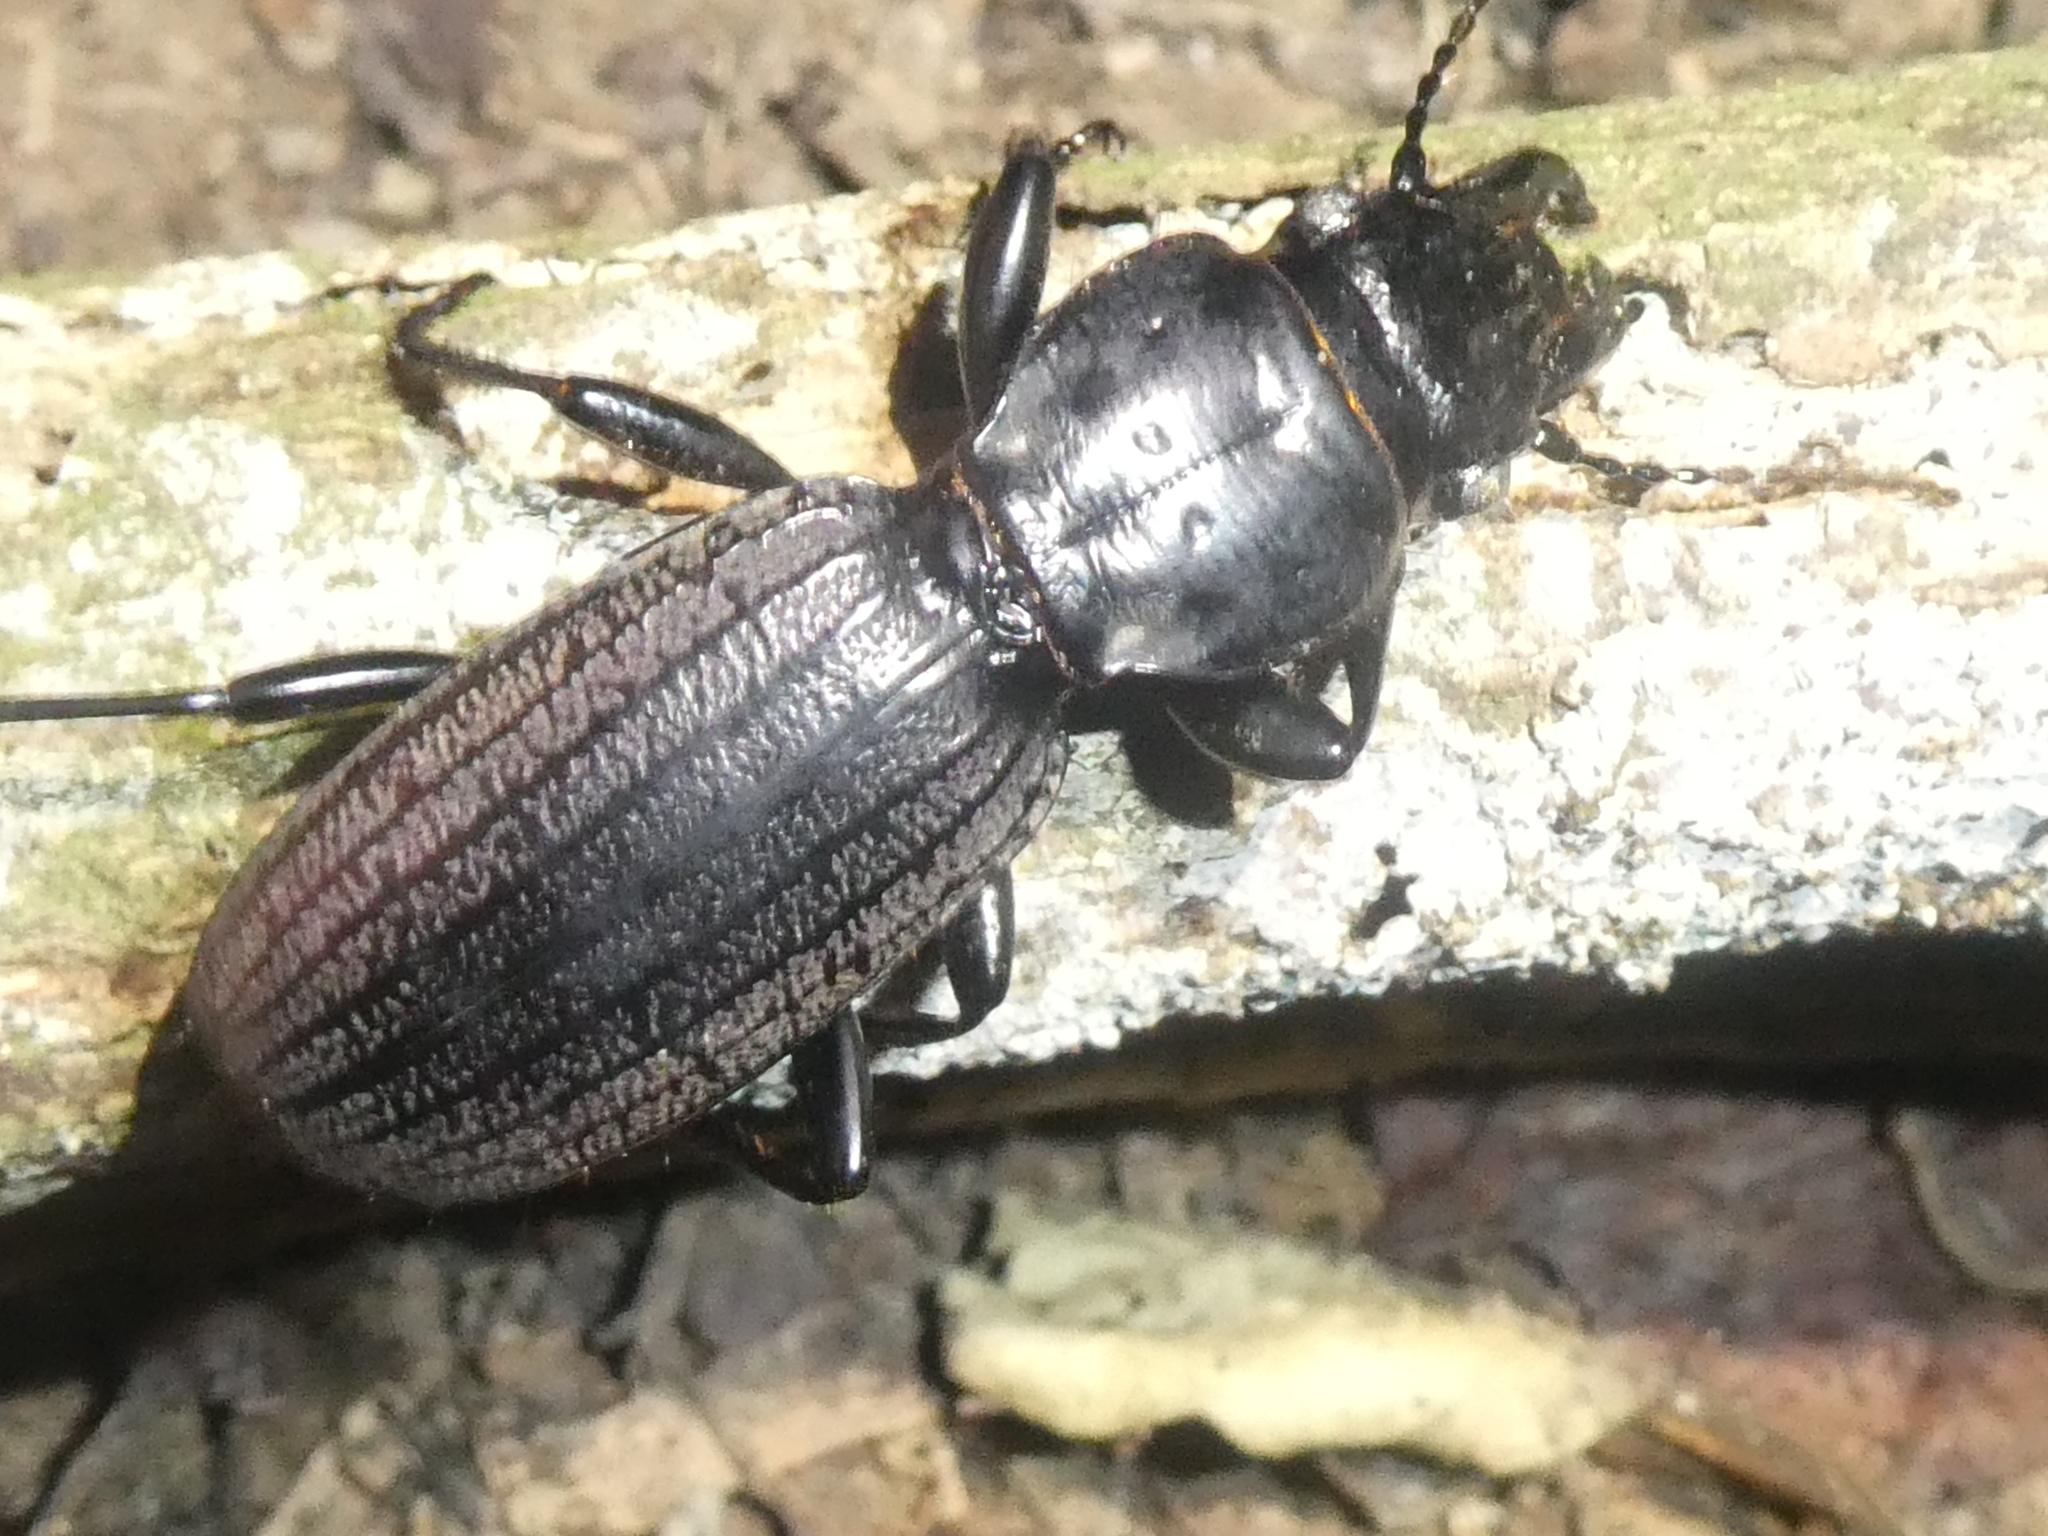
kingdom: Animalia
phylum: Arthropoda
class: Insecta
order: Coleoptera
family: Carabidae
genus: Mecodema
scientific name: Mecodema costellum
